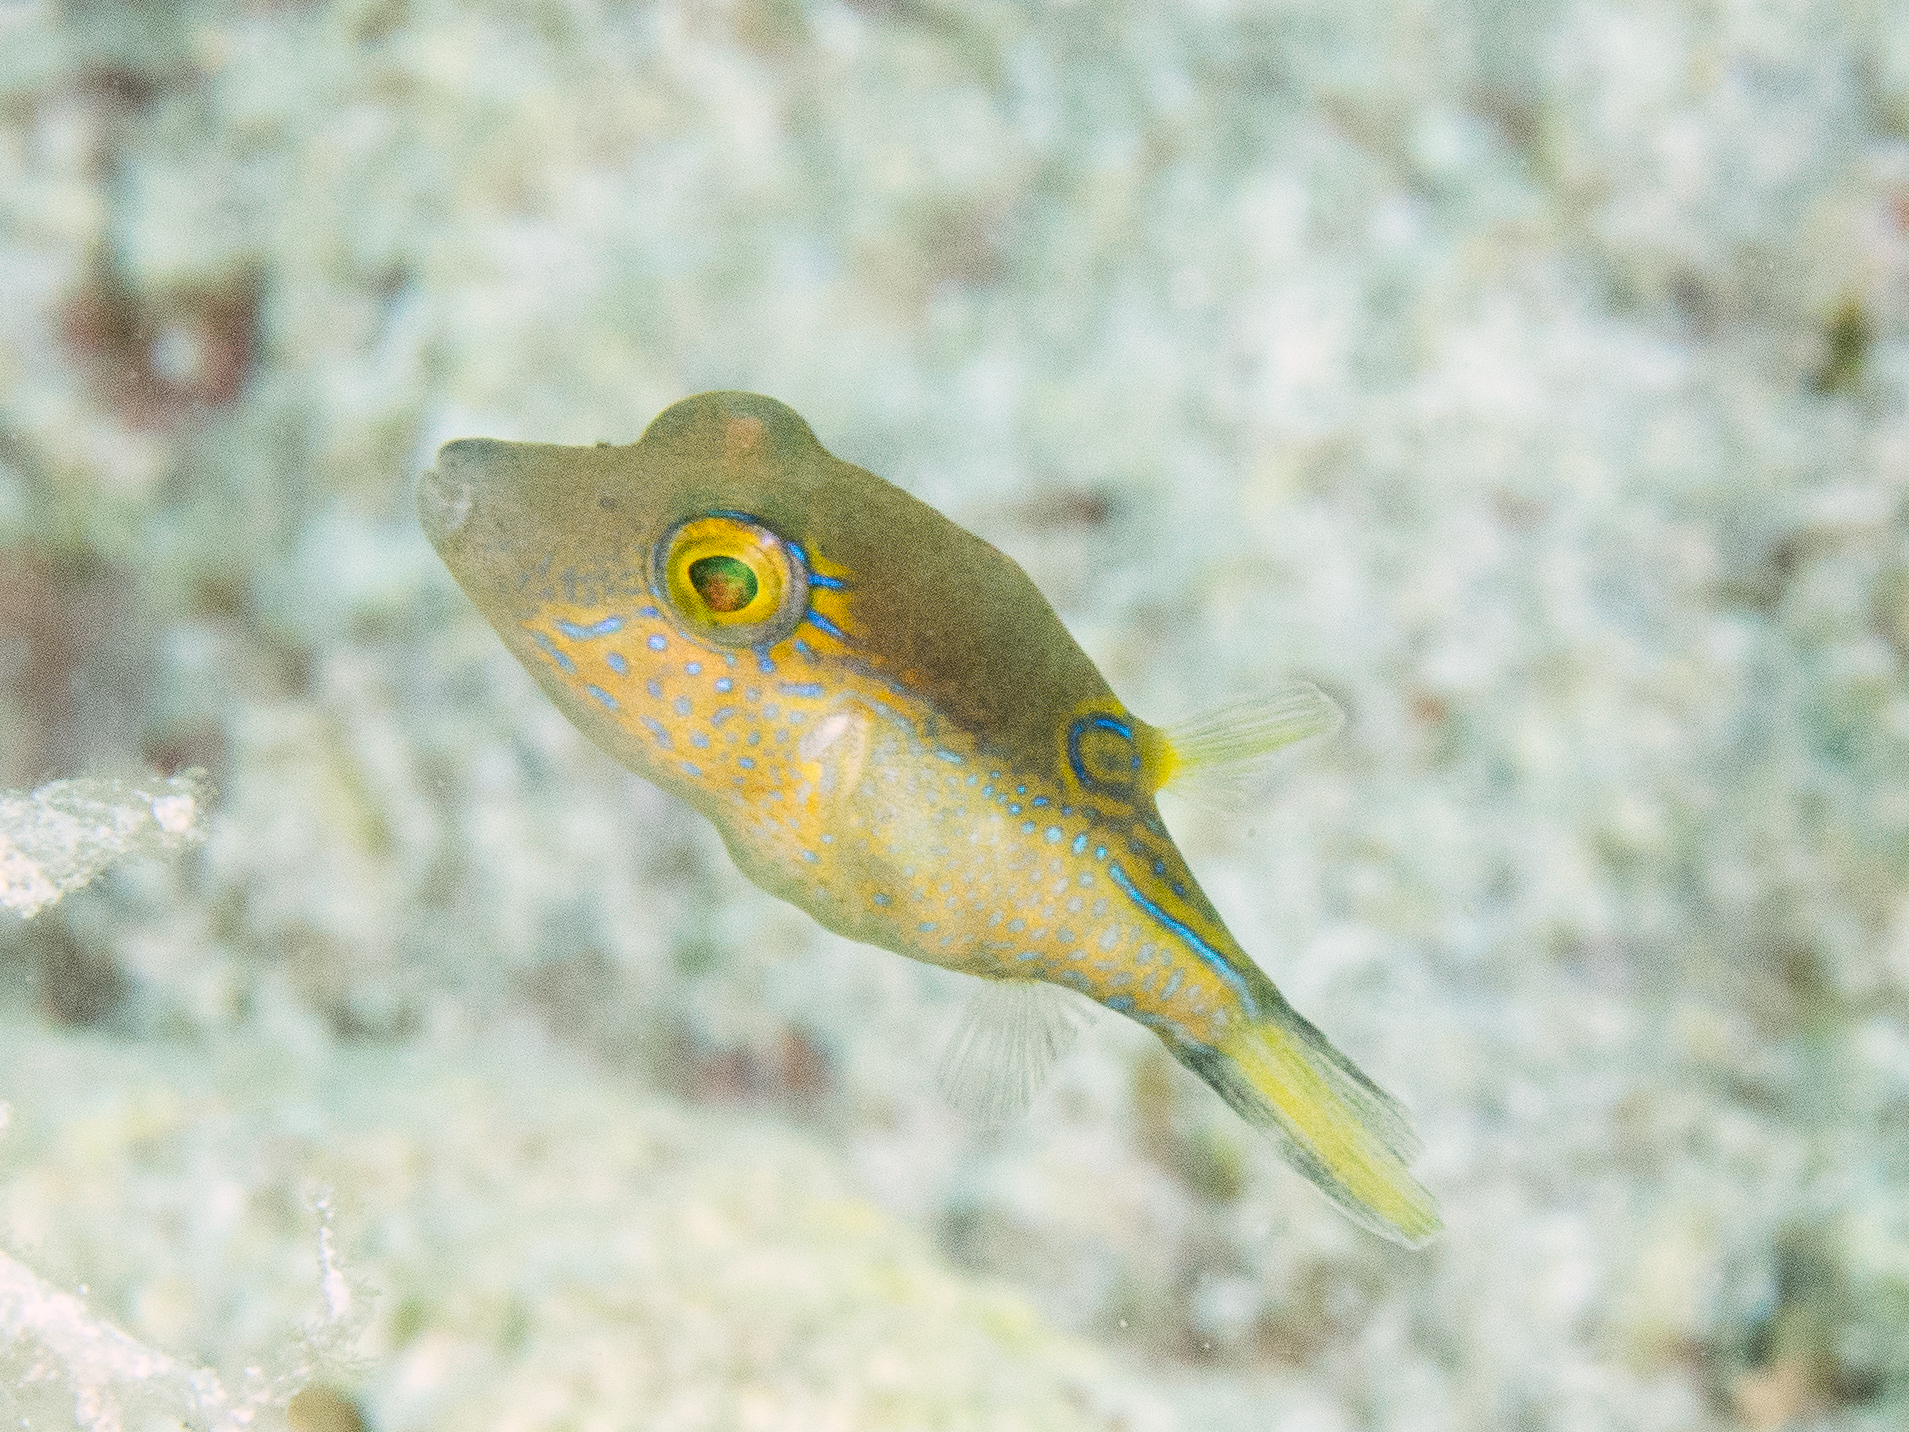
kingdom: Animalia
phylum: Chordata
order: Tetraodontiformes
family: Tetraodontidae
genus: Canthigaster
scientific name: Canthigaster rostrata
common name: Caribbean sharpnose-puffer
